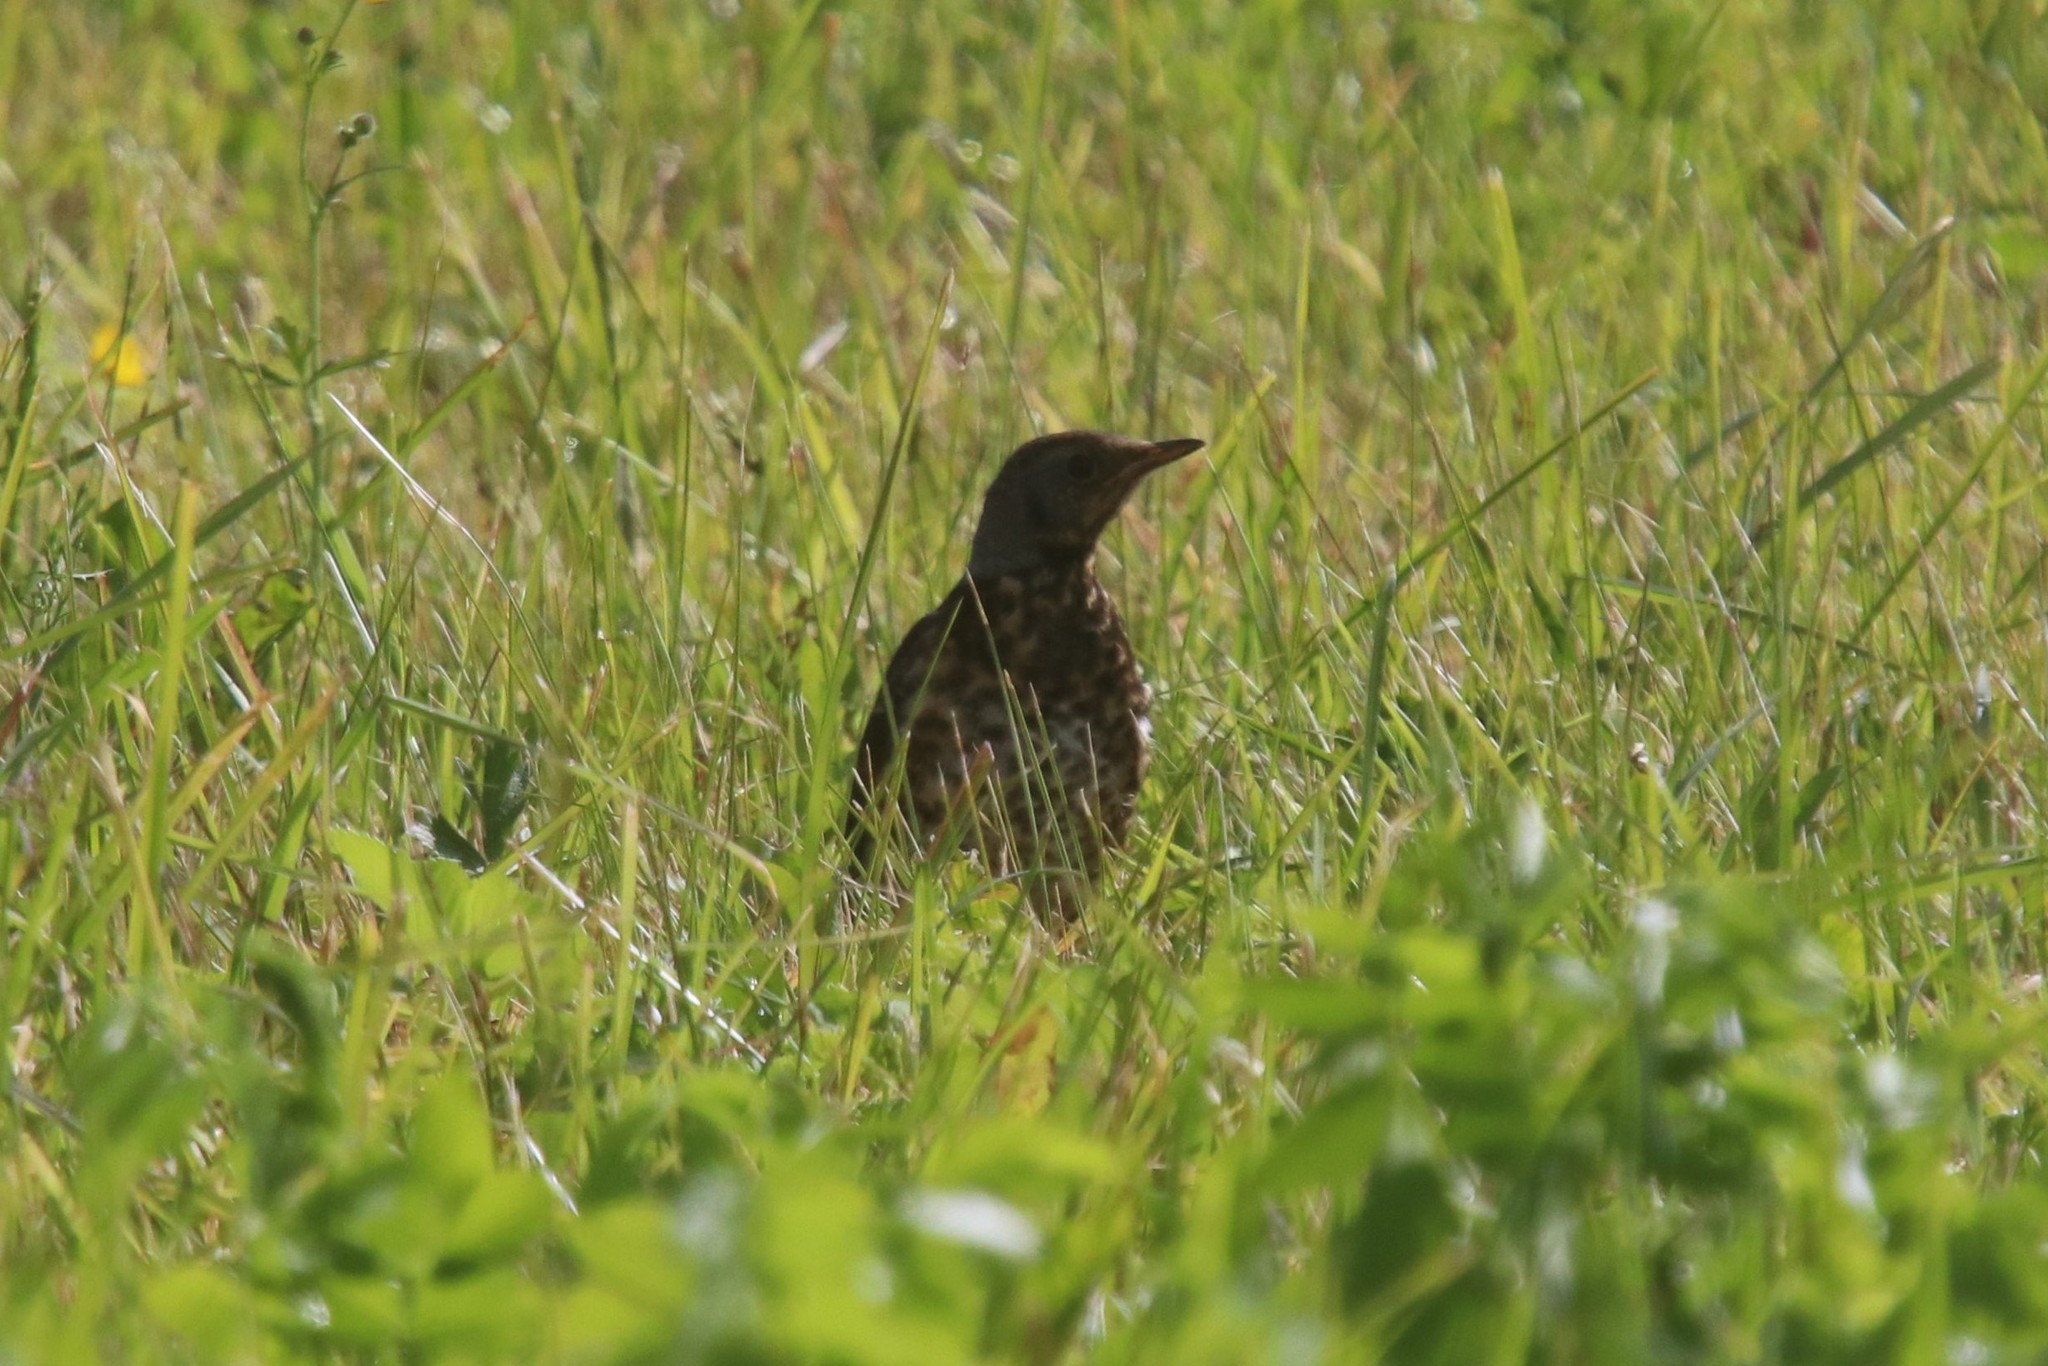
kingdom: Animalia
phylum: Chordata
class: Aves
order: Passeriformes
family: Turdidae
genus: Turdus
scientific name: Turdus pilaris
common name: Fieldfare
